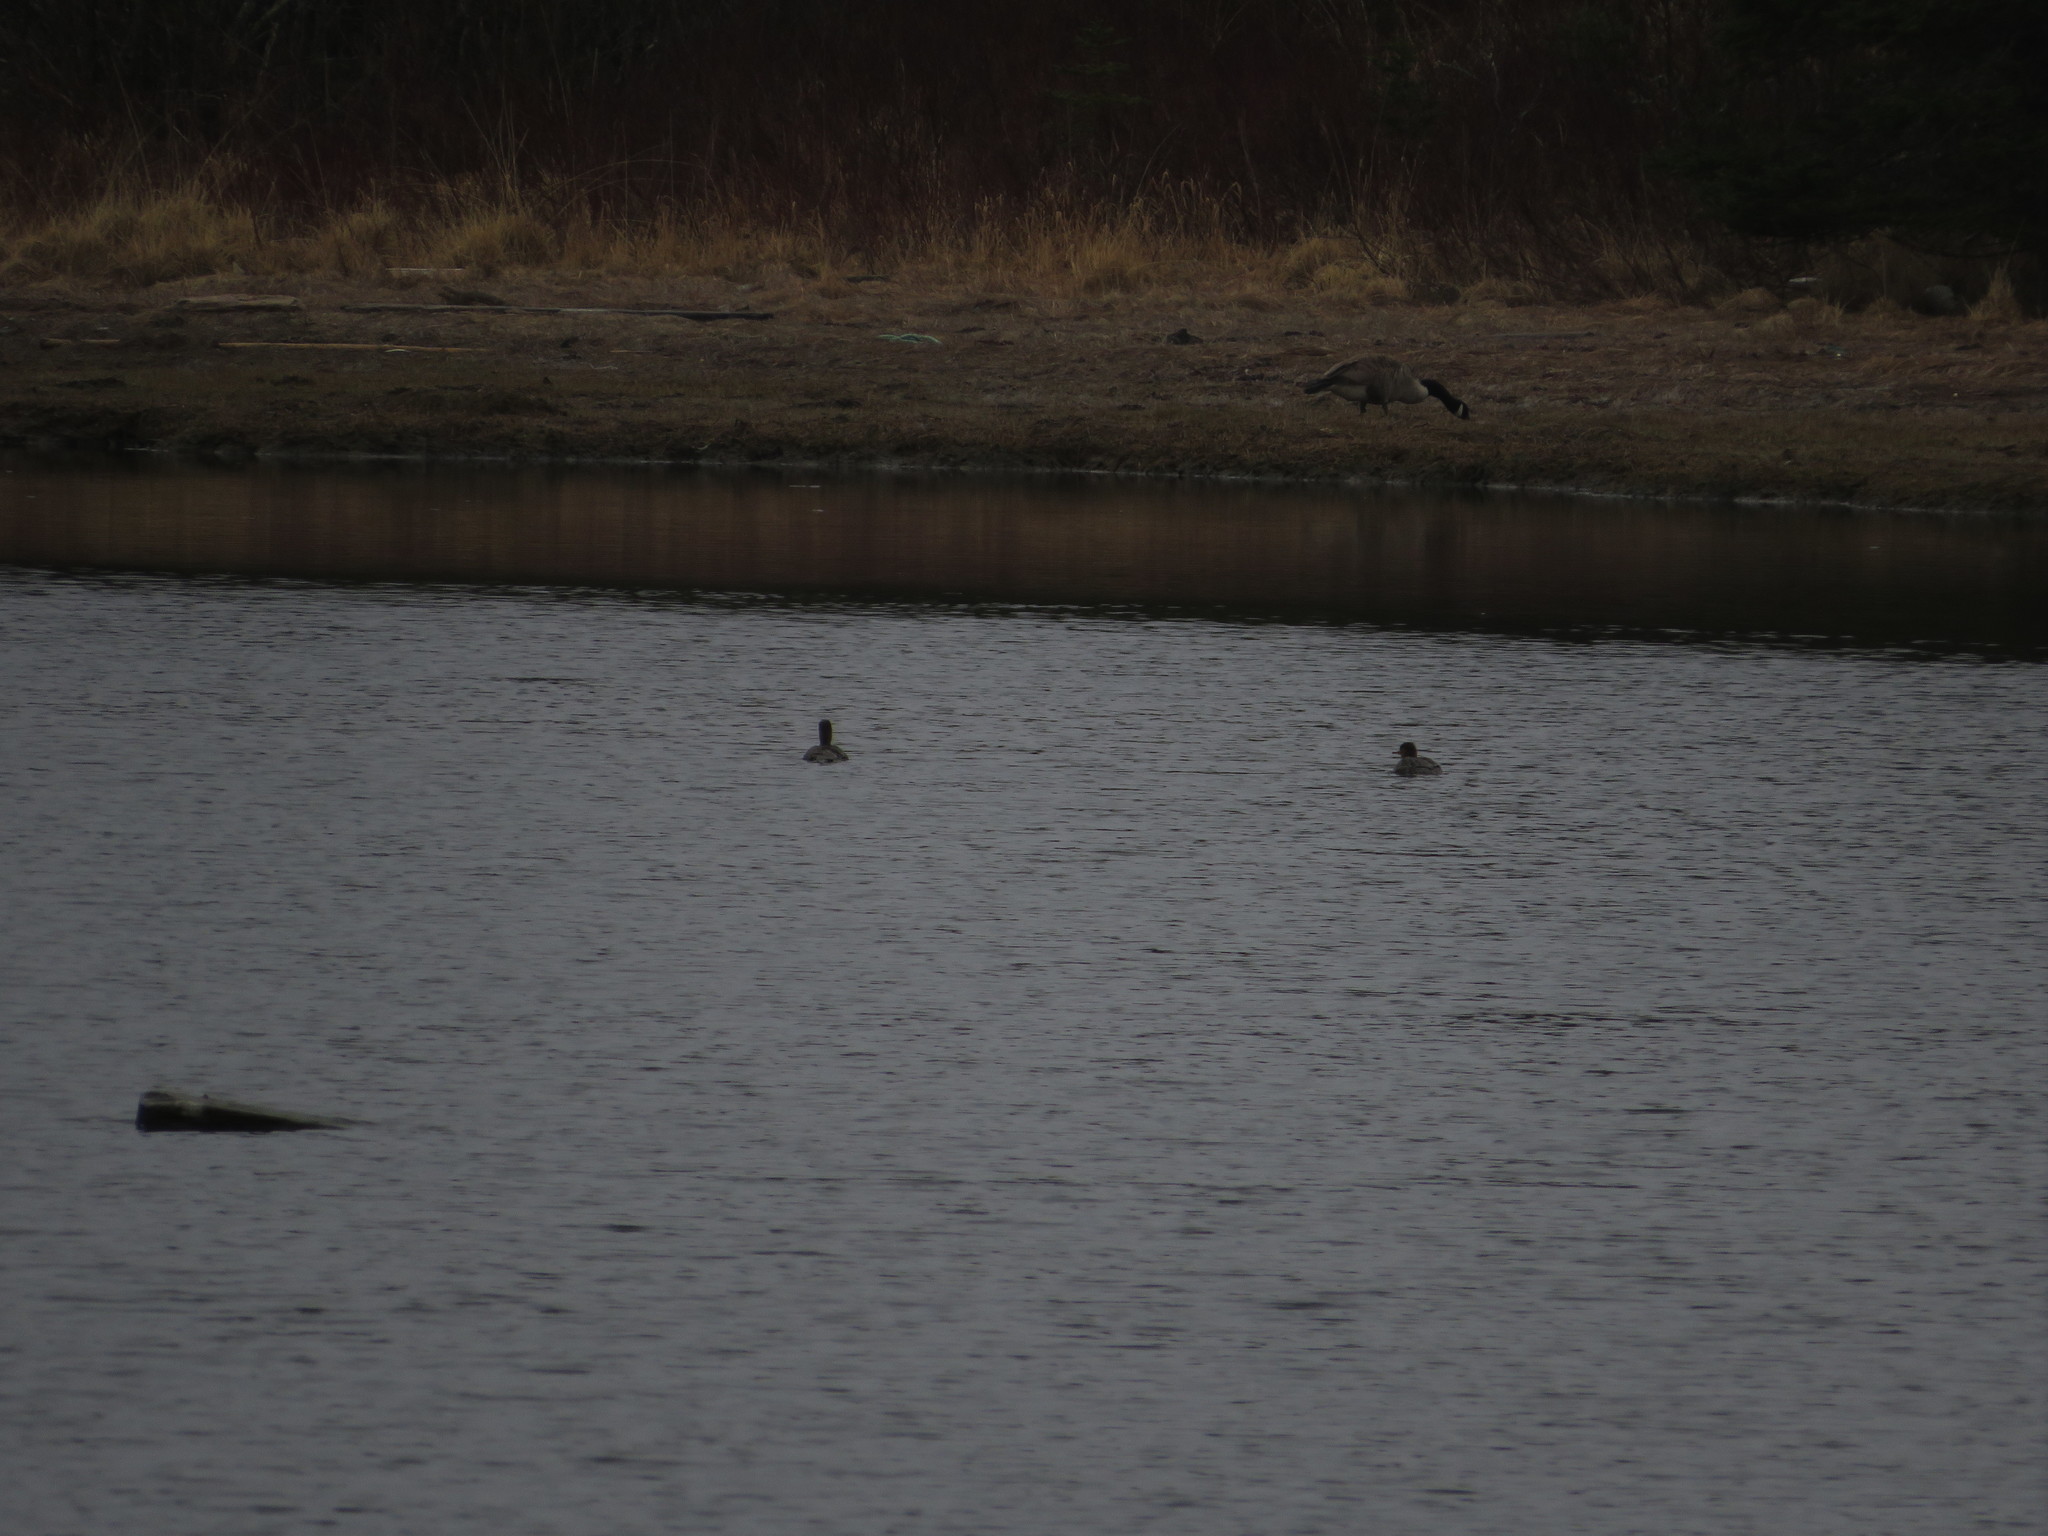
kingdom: Animalia
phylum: Chordata
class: Aves
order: Anseriformes
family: Anatidae
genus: Mergus
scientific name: Mergus serrator
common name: Red-breasted merganser
